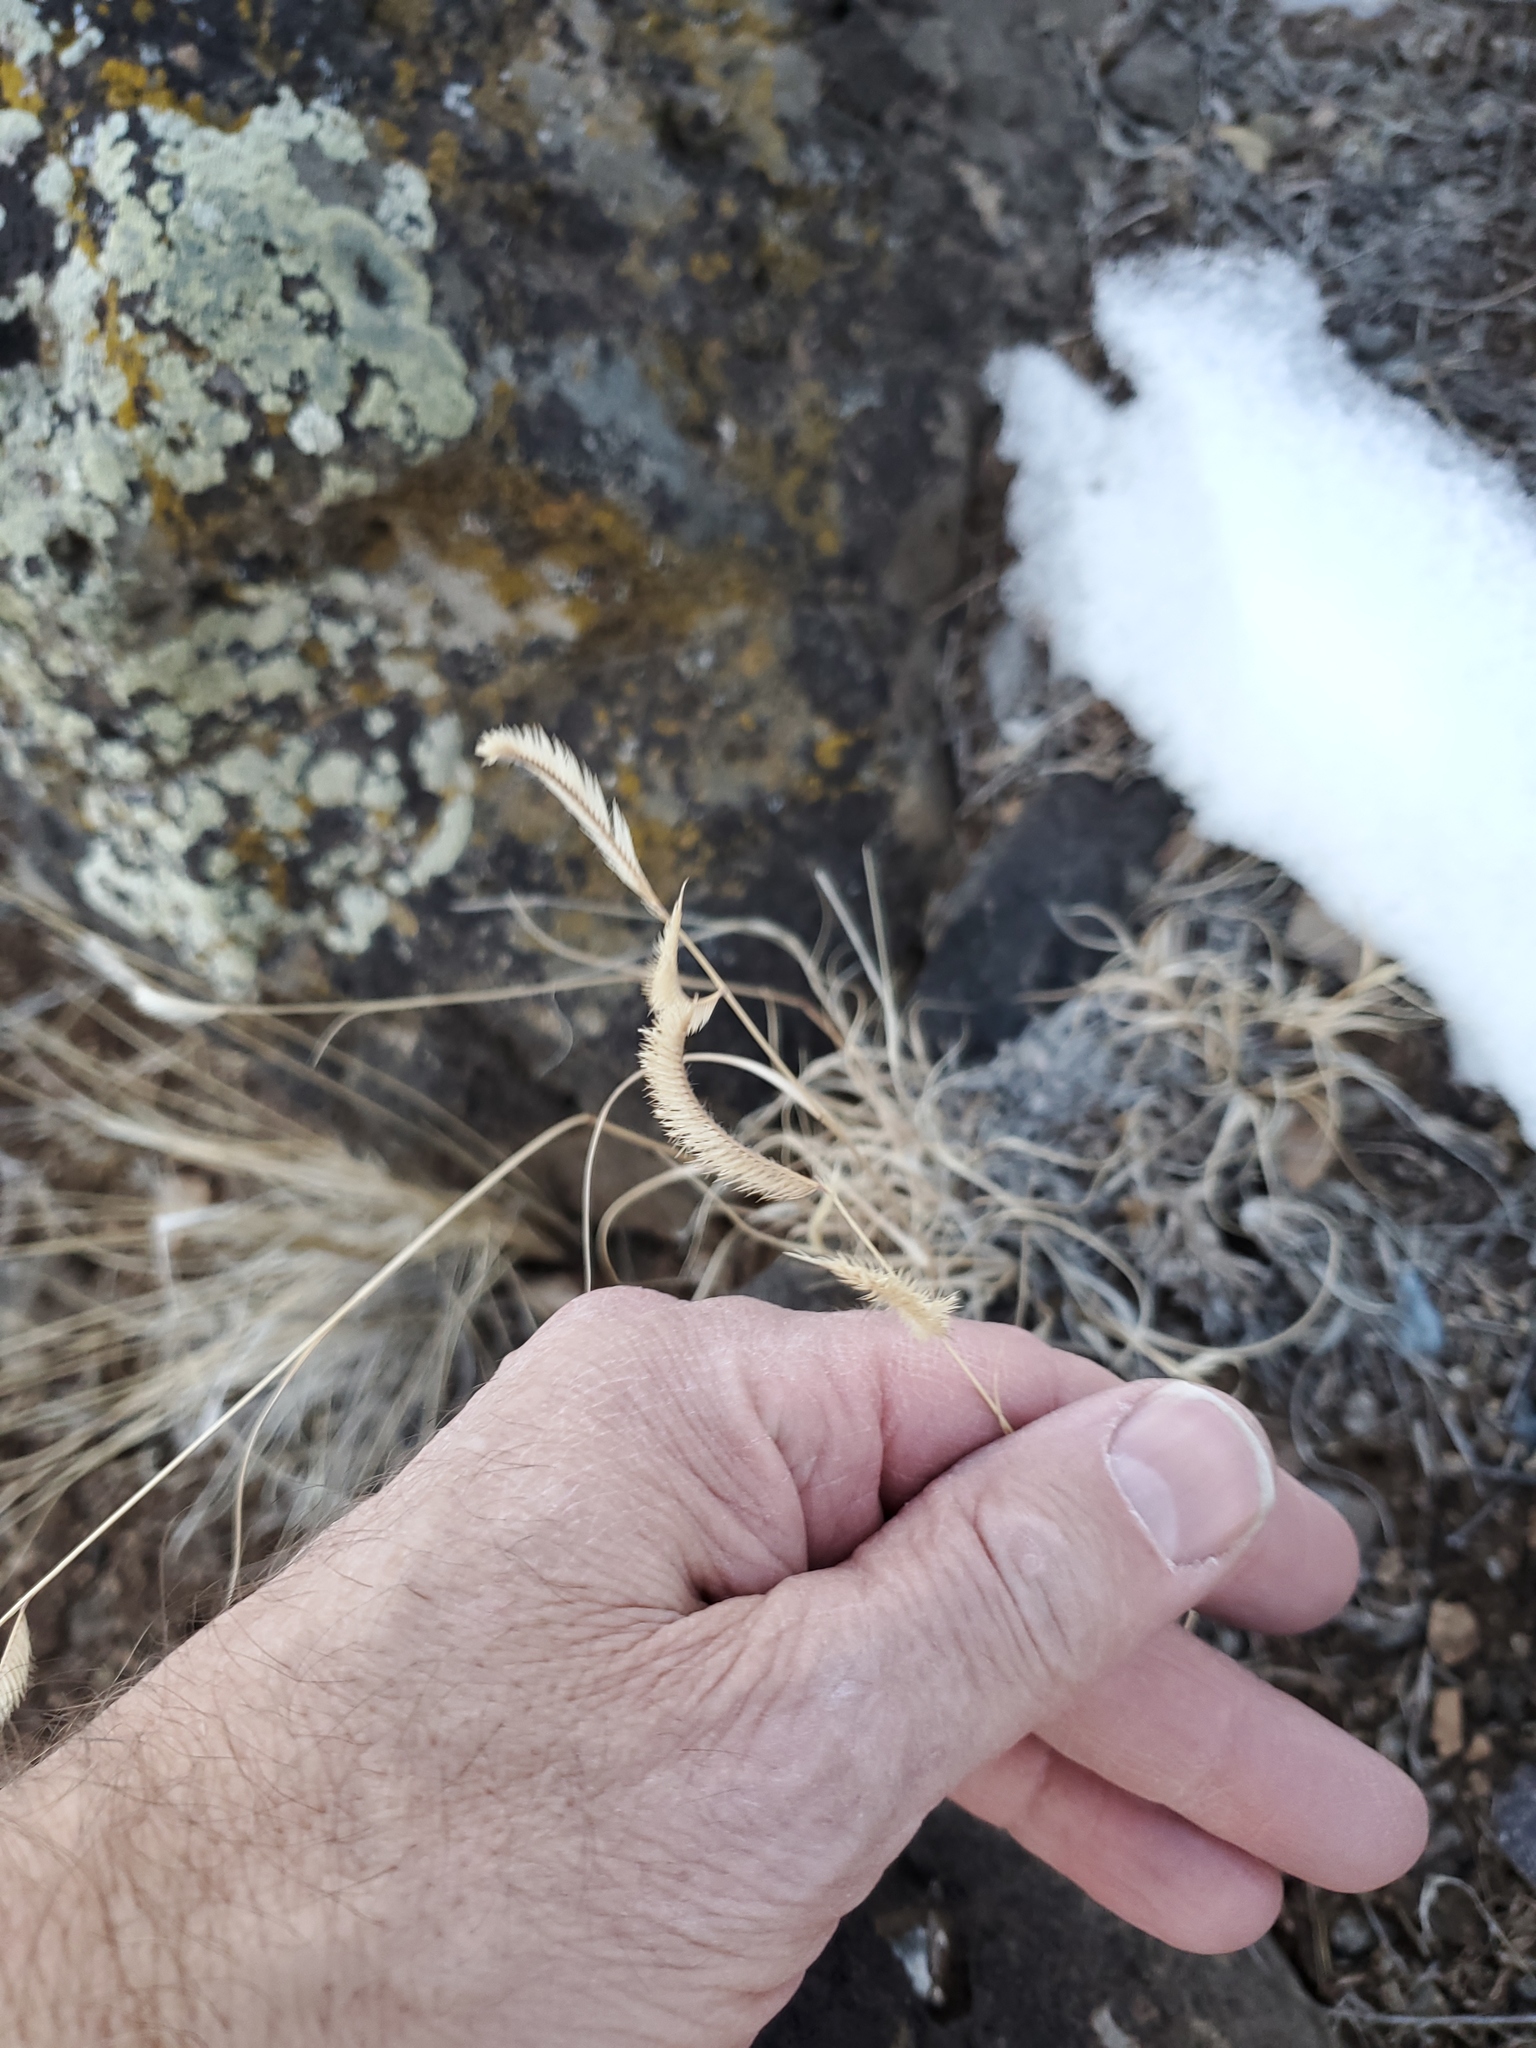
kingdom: Plantae
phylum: Tracheophyta
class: Liliopsida
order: Poales
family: Poaceae
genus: Bouteloua
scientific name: Bouteloua gracilis
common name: Blue grama
